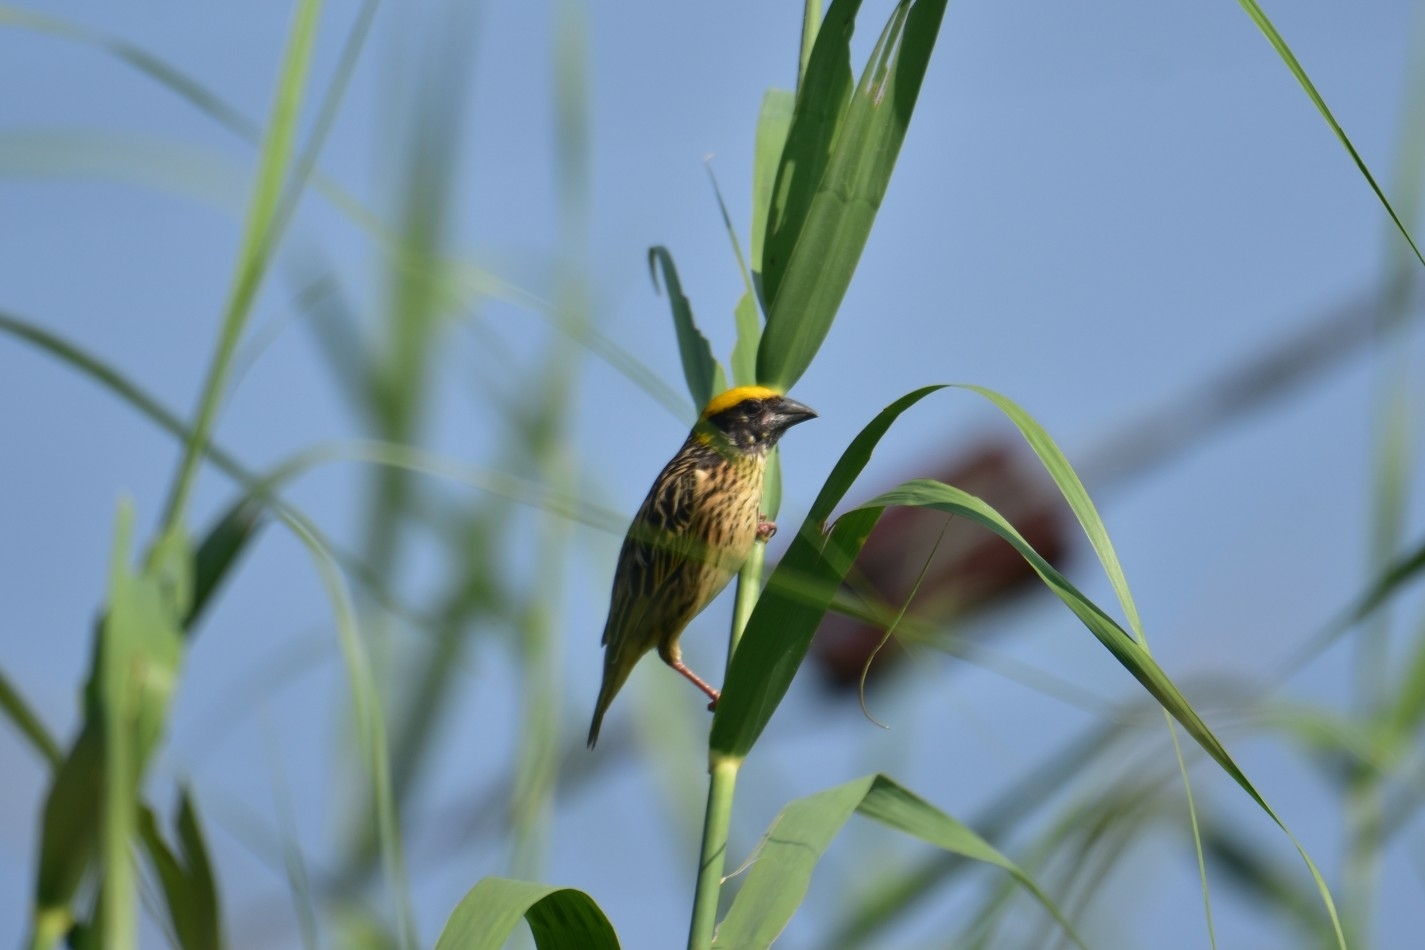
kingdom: Animalia
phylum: Chordata
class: Aves
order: Passeriformes
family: Ploceidae
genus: Ploceus
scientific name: Ploceus manyar
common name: Streaked weaver
